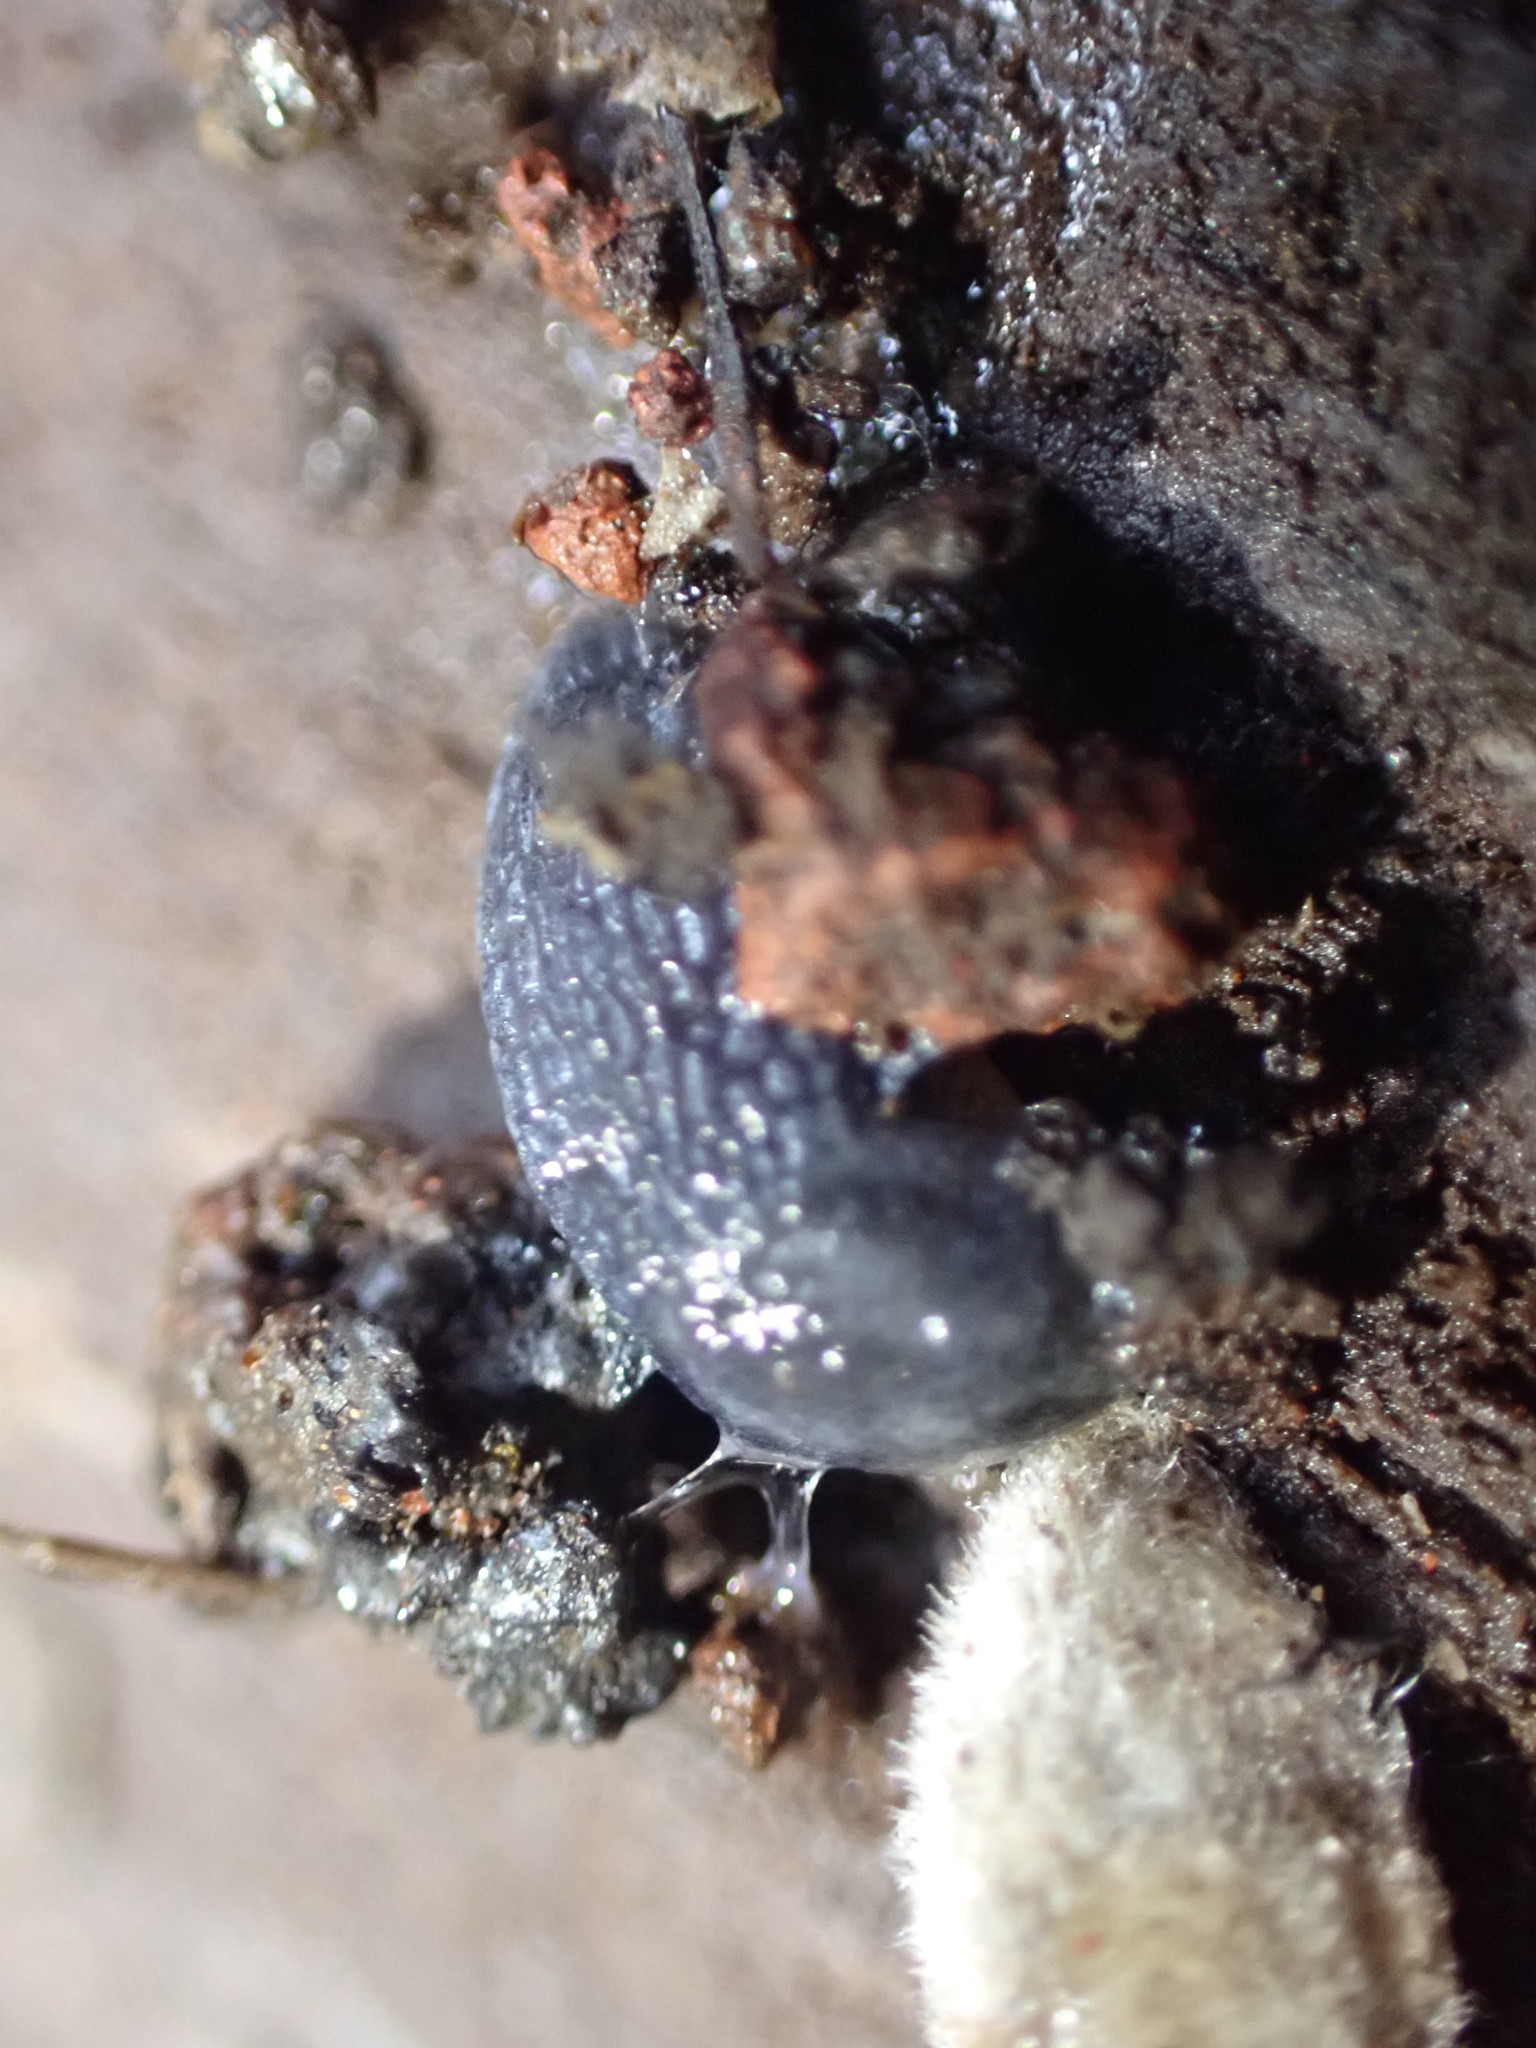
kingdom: Animalia
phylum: Mollusca
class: Gastropoda
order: Stylommatophora
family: Arionidae
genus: Kobeltia
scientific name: Kobeltia
